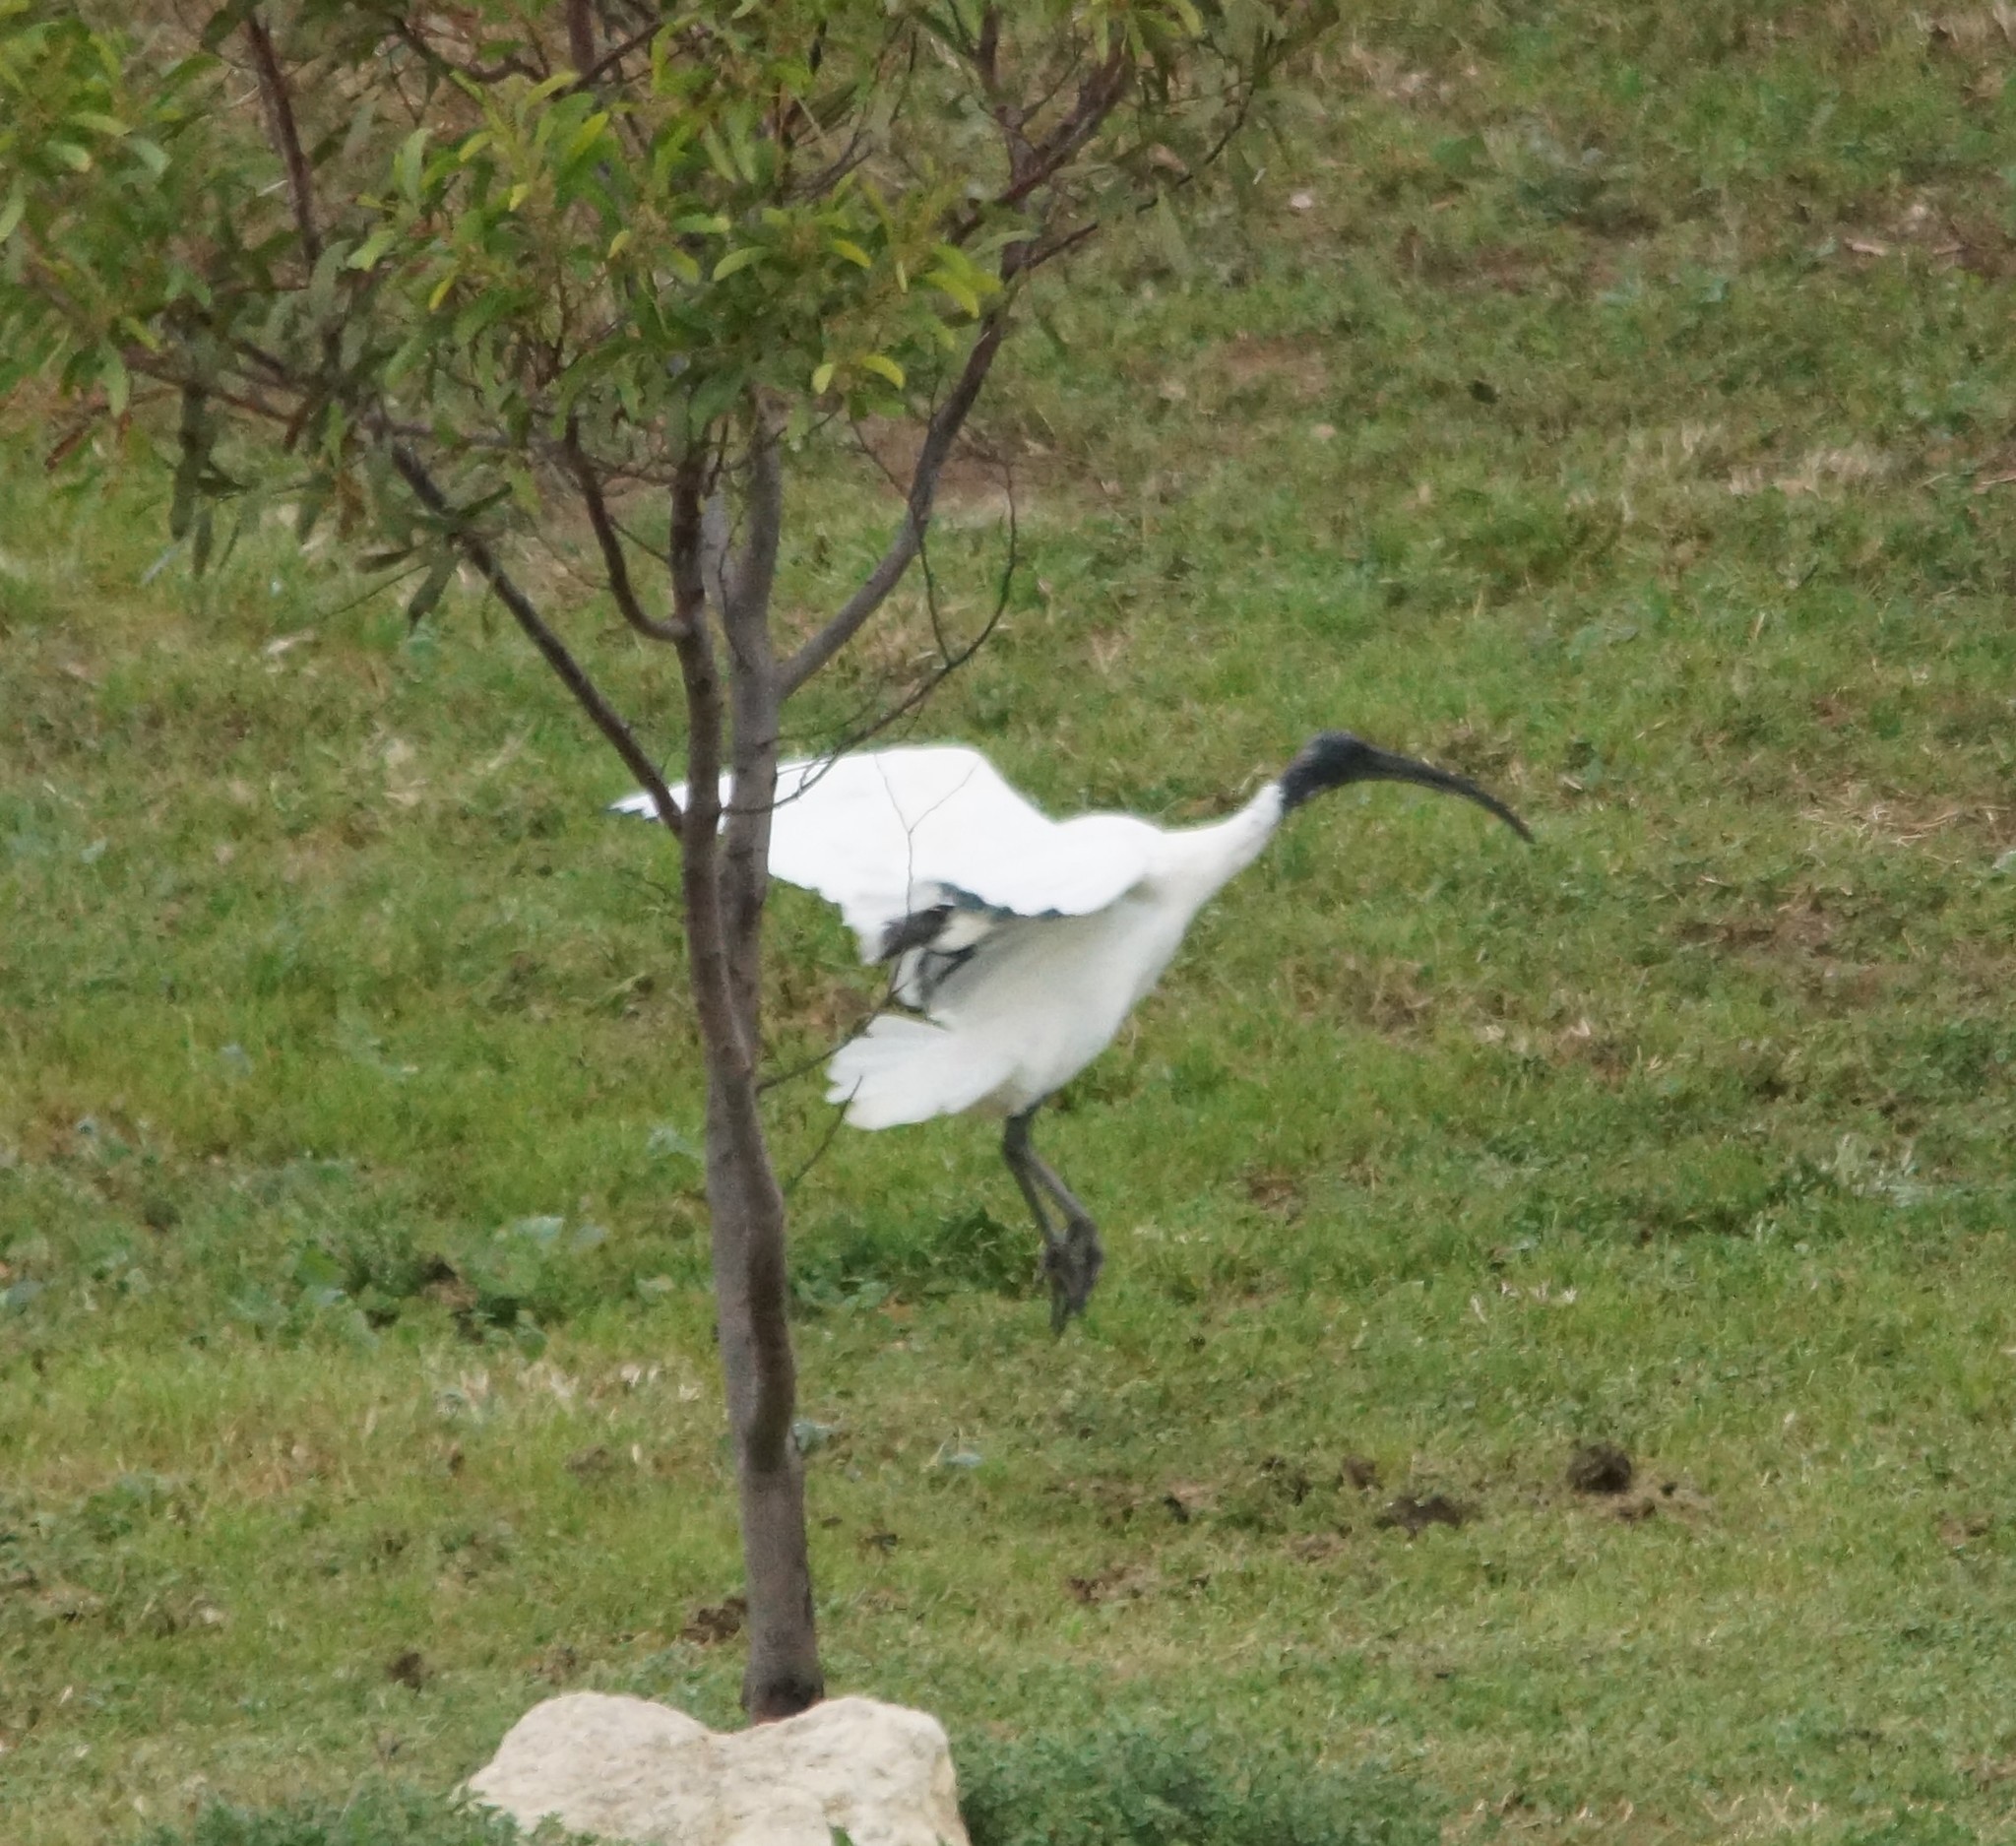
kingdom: Animalia
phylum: Chordata
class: Aves
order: Pelecaniformes
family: Threskiornithidae
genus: Threskiornis
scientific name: Threskiornis molucca
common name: Australian white ibis
